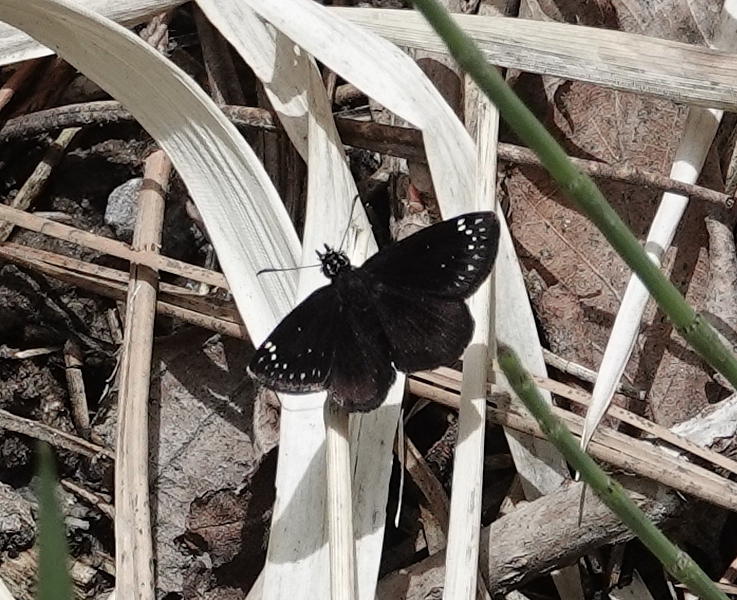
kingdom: Animalia
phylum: Arthropoda
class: Insecta
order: Lepidoptera
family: Hesperiidae
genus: Pholisora
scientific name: Pholisora catullus
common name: Common sootywing
